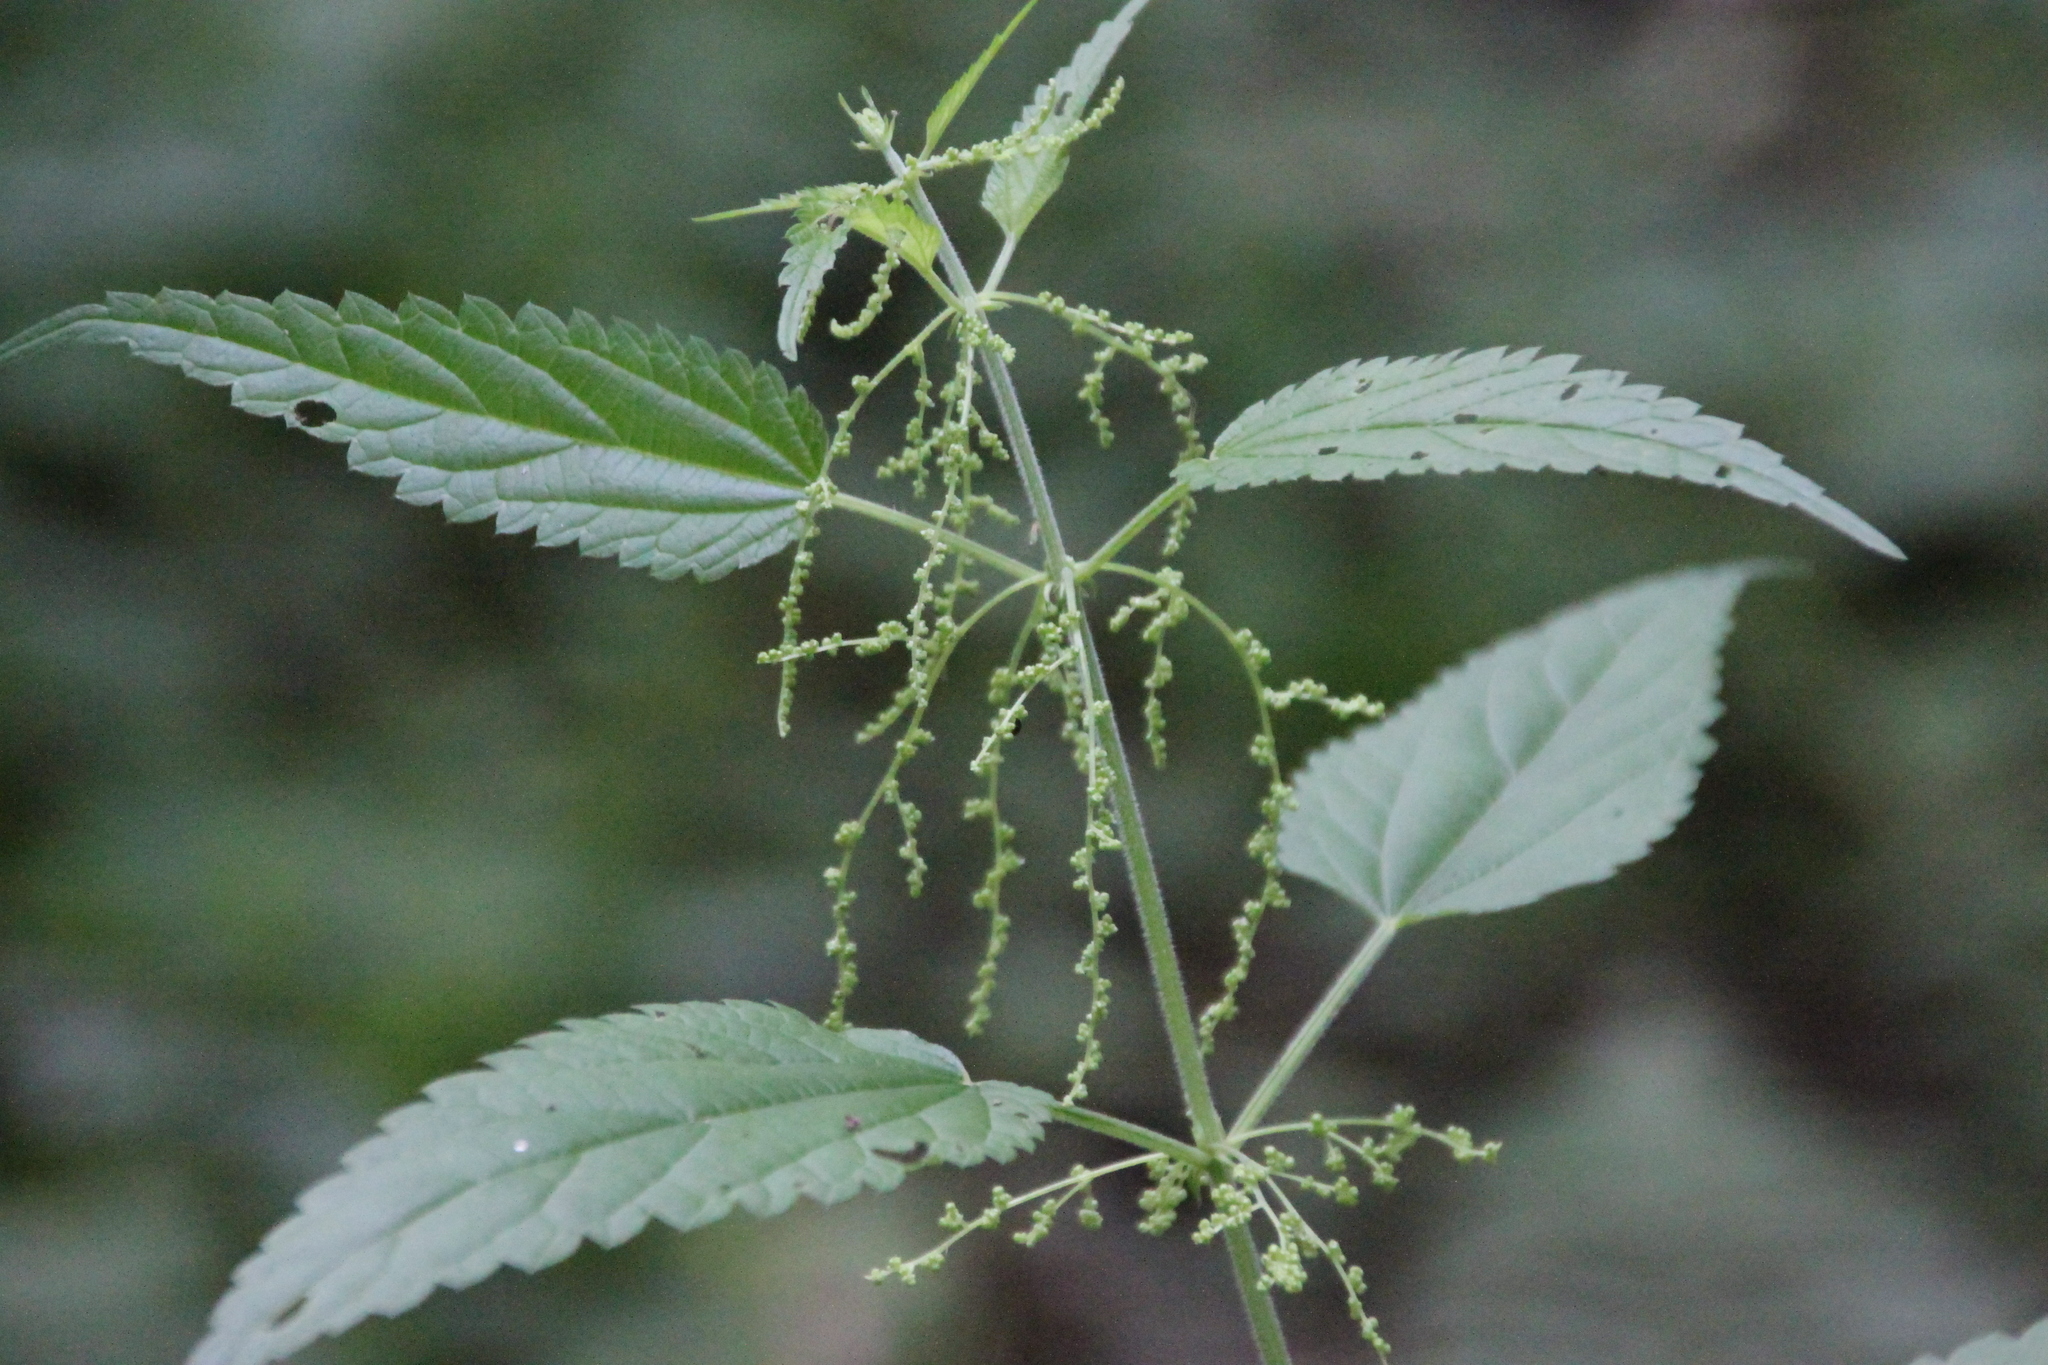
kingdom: Plantae
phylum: Tracheophyta
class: Magnoliopsida
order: Rosales
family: Urticaceae
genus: Urtica
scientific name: Urtica dioica
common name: Common nettle
